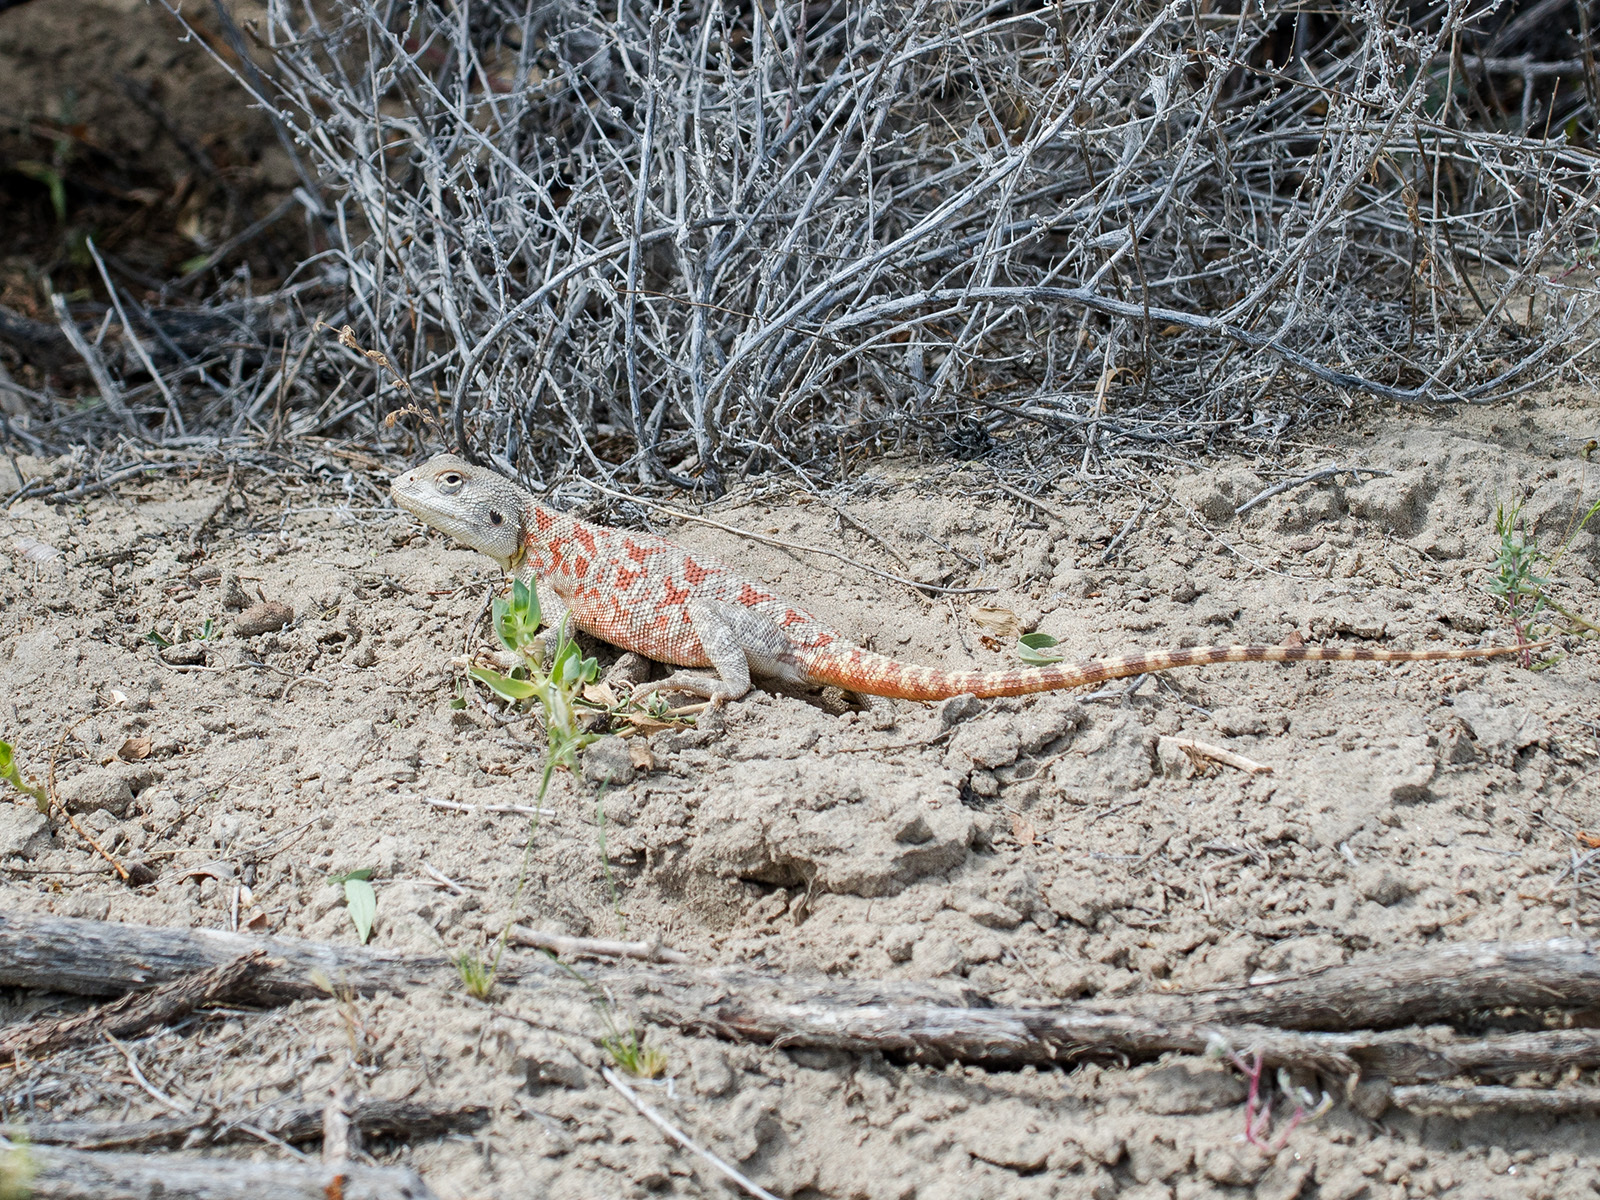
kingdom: Animalia
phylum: Chordata
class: Squamata
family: Agamidae
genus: Trapelus
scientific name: Trapelus sanguinolentus
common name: Steppe agama
